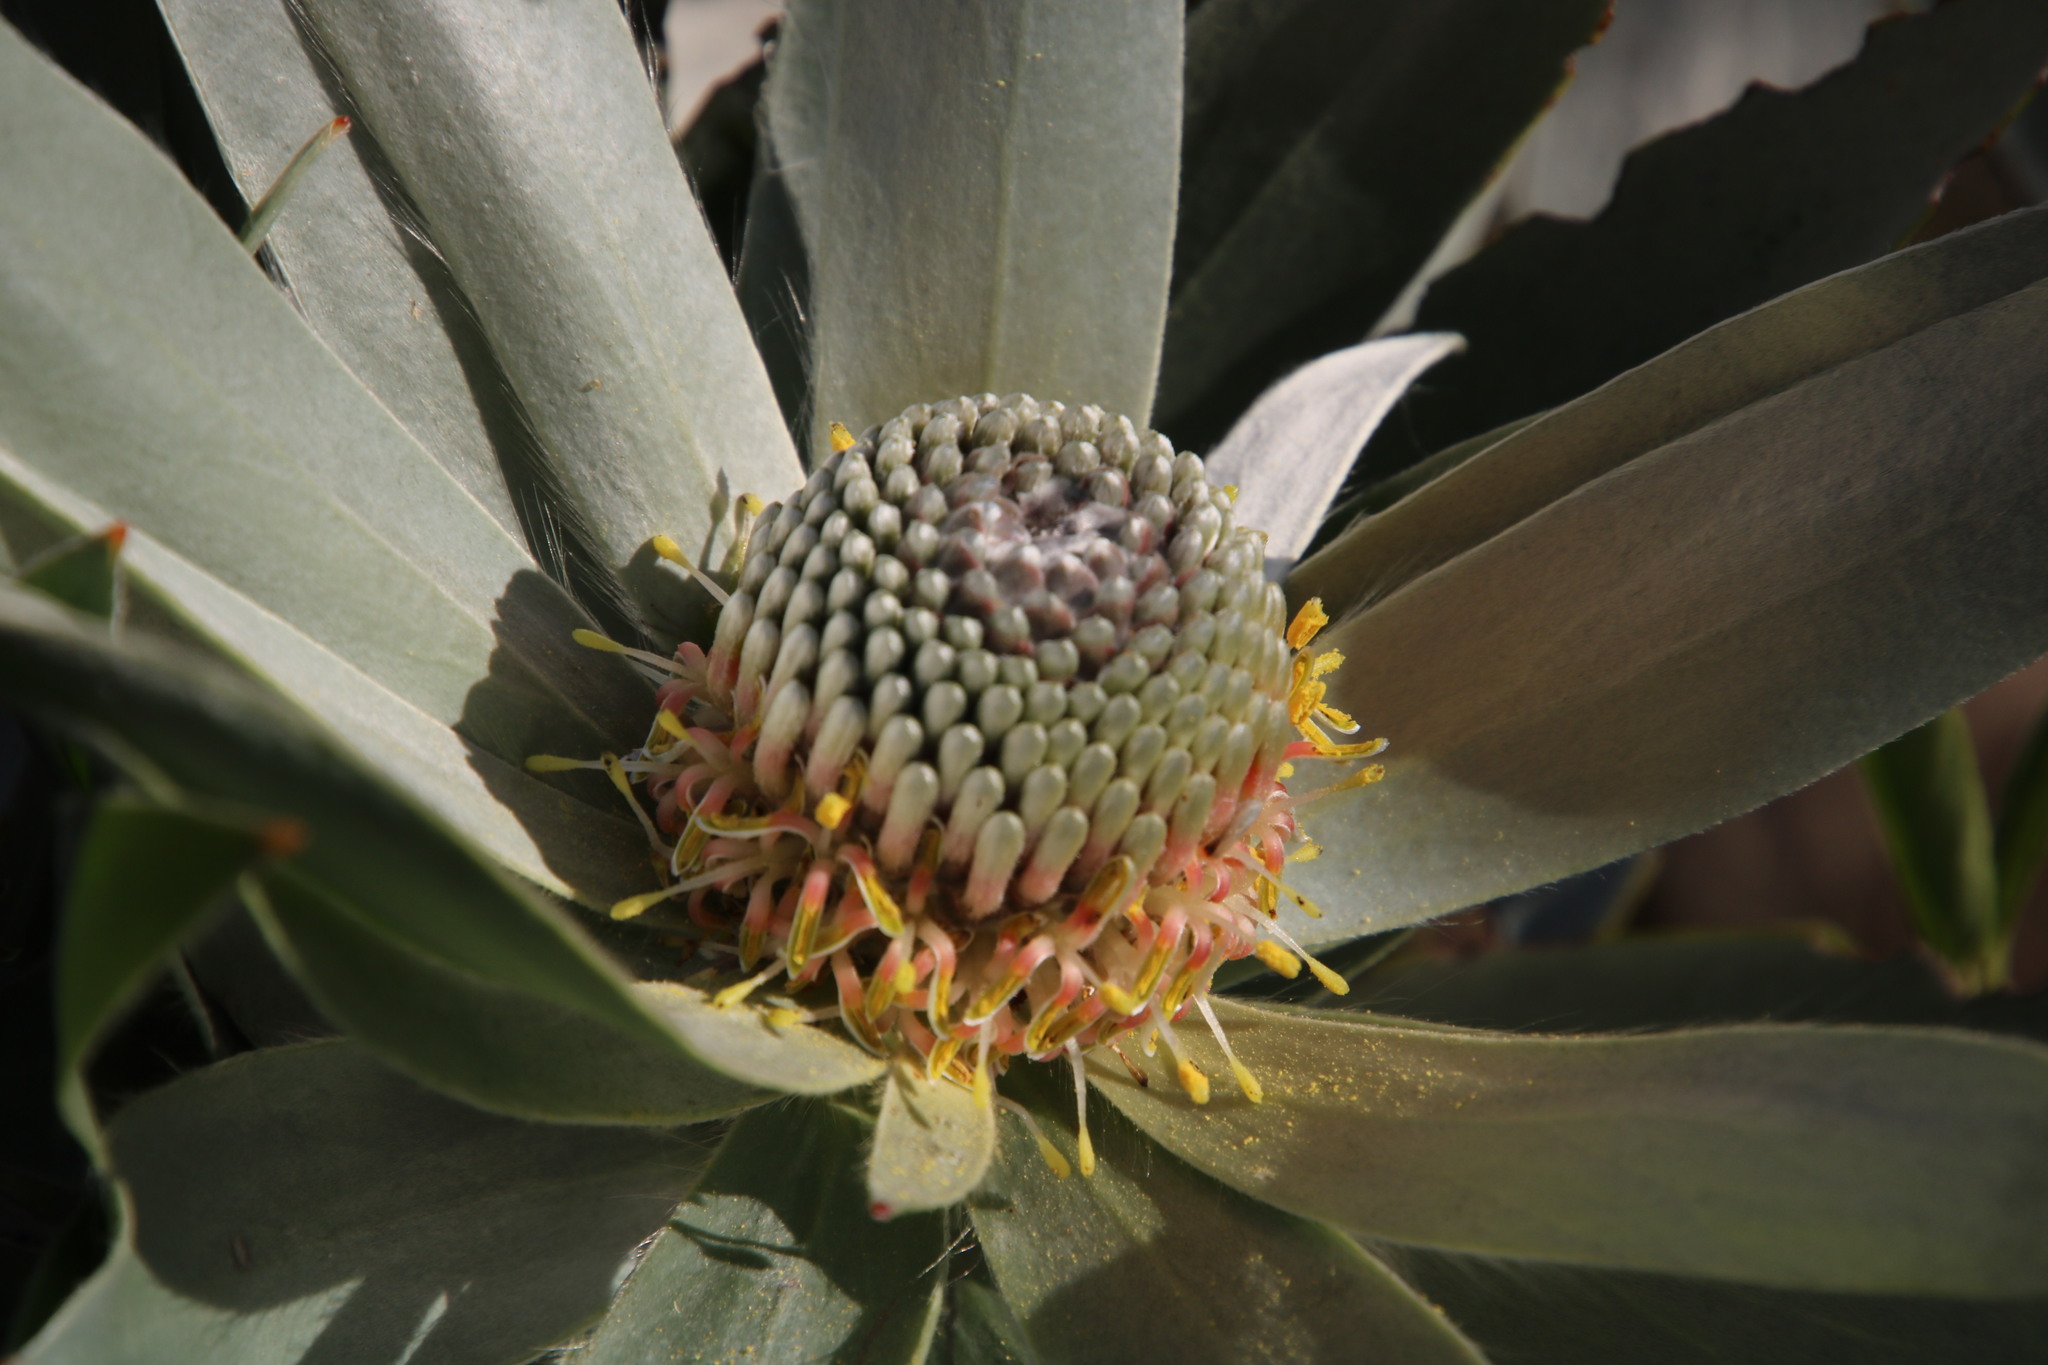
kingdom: Plantae
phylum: Tracheophyta
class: Magnoliopsida
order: Proteales
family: Proteaceae
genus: Leucadendron
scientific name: Leucadendron argenteum
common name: Cape silver tree
